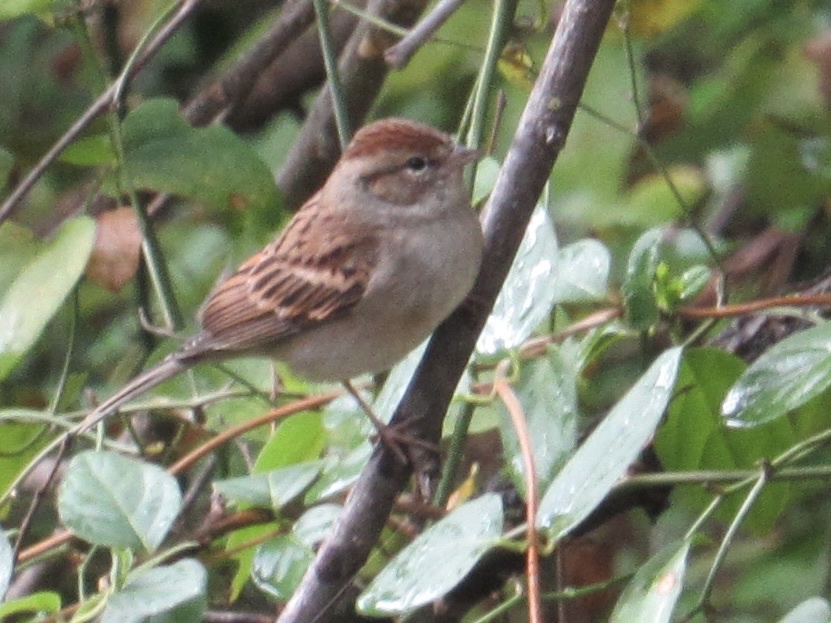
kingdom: Animalia
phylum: Chordata
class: Aves
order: Passeriformes
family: Passerellidae
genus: Spizella
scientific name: Spizella passerina
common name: Chipping sparrow
